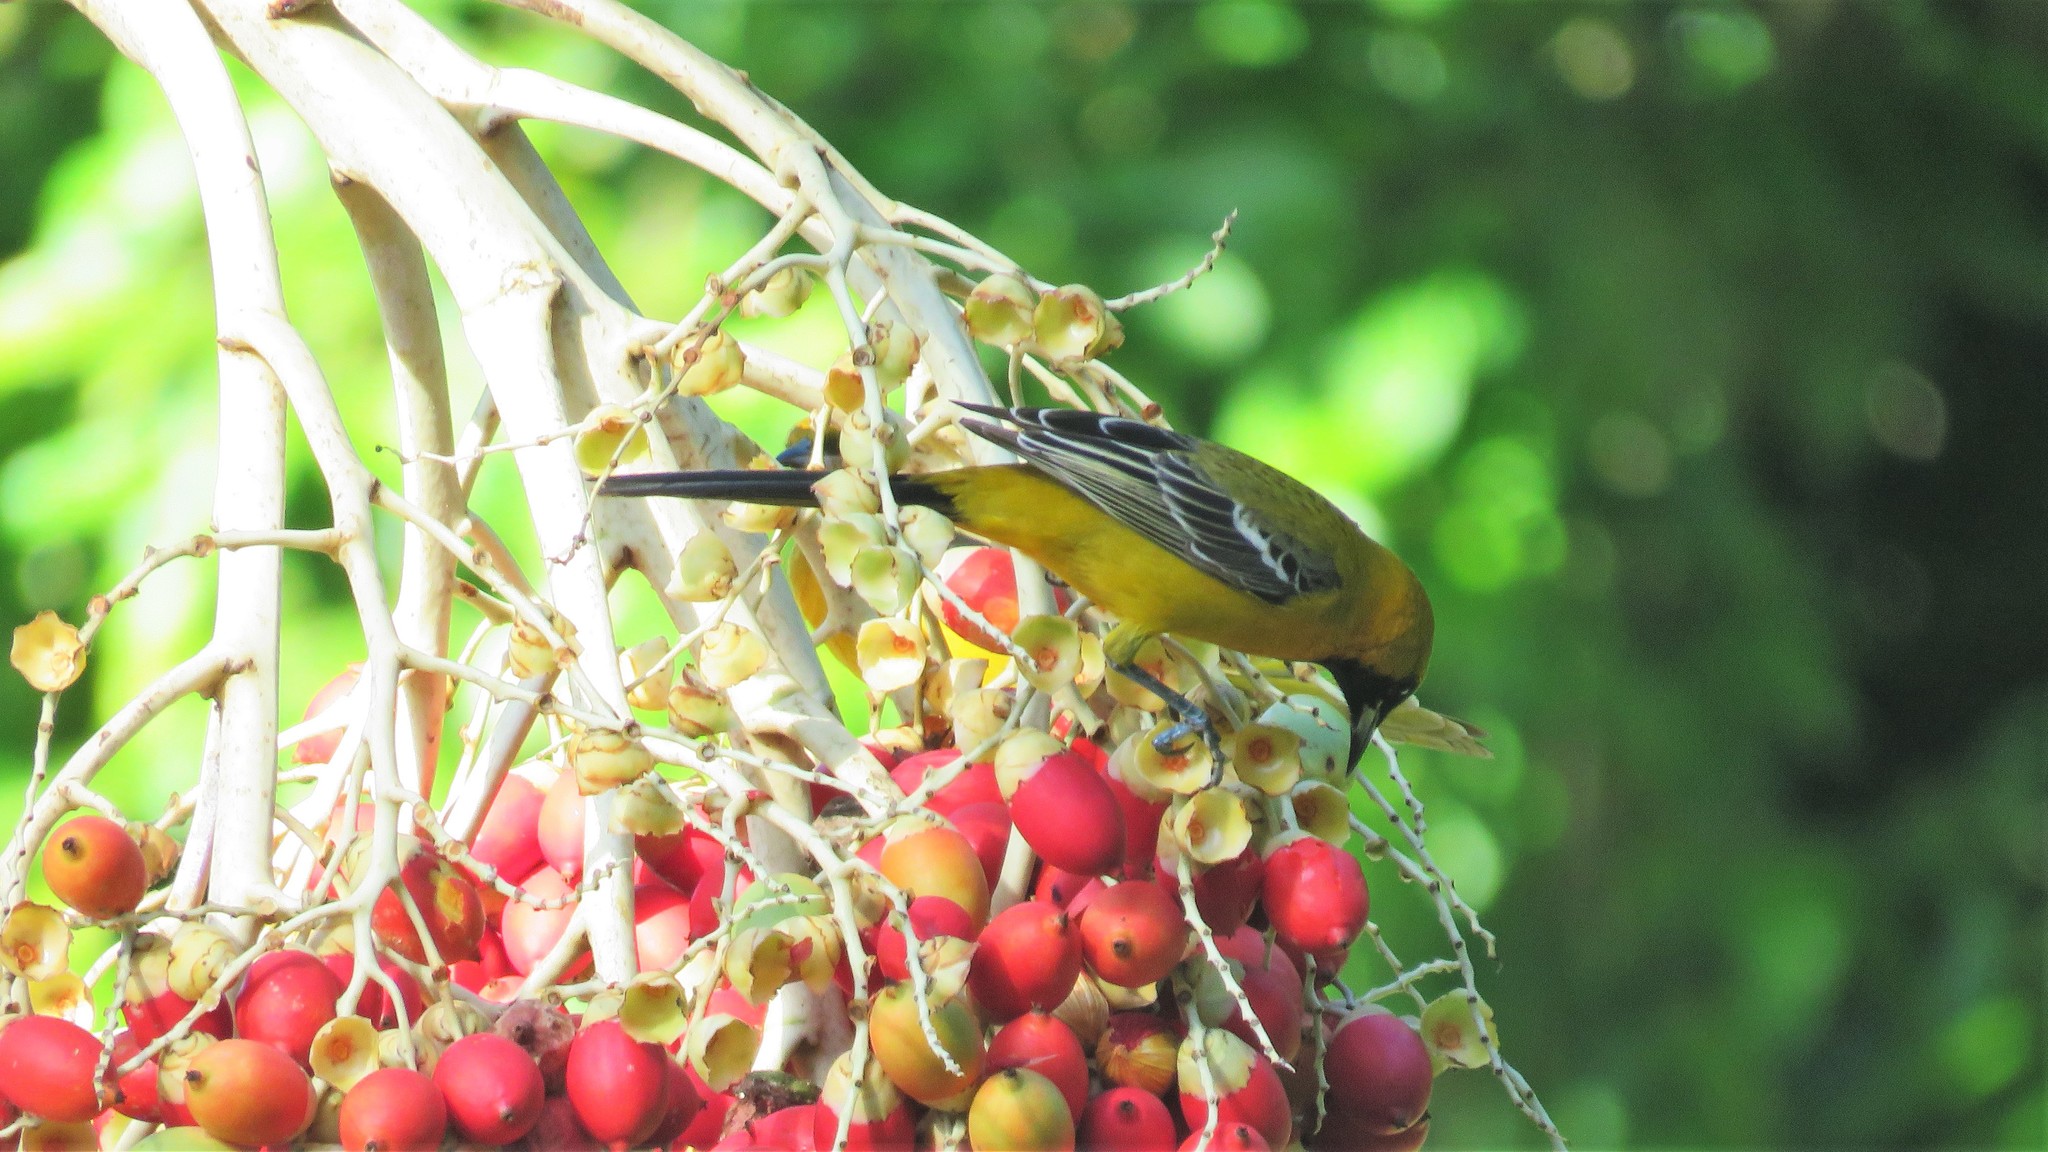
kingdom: Animalia
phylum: Chordata
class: Aves
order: Passeriformes
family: Icteridae
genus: Icterus
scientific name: Icterus cucullatus
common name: Hooded oriole
